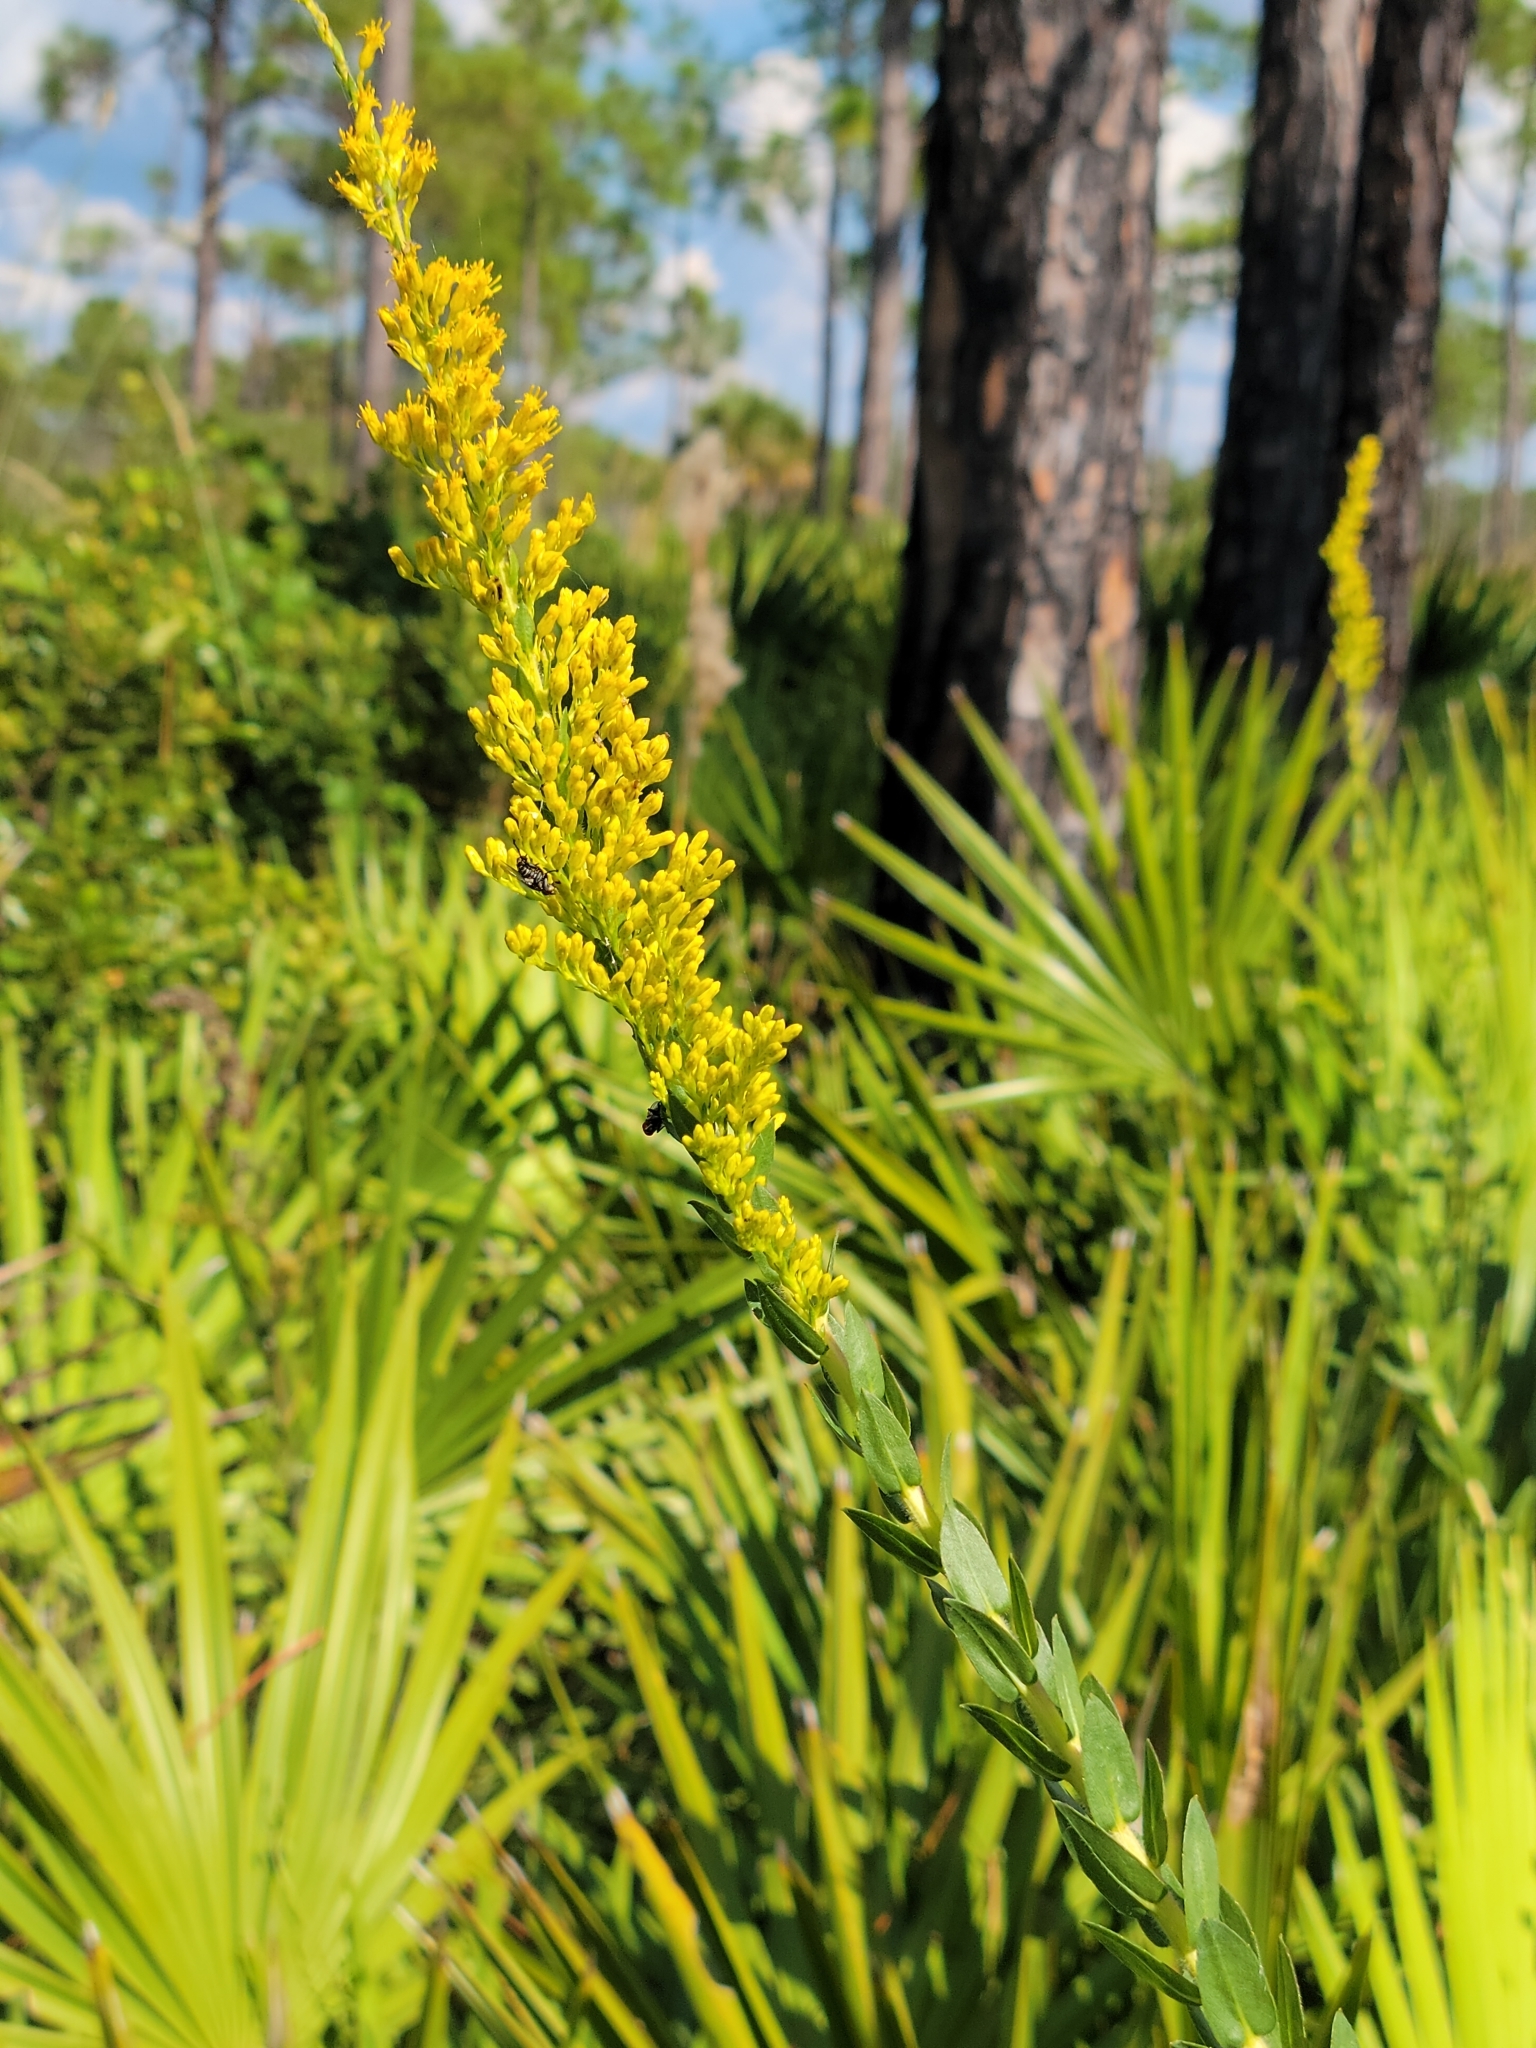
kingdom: Plantae
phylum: Tracheophyta
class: Magnoliopsida
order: Asterales
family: Asteraceae
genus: Solidago
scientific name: Solidago fistulosa
